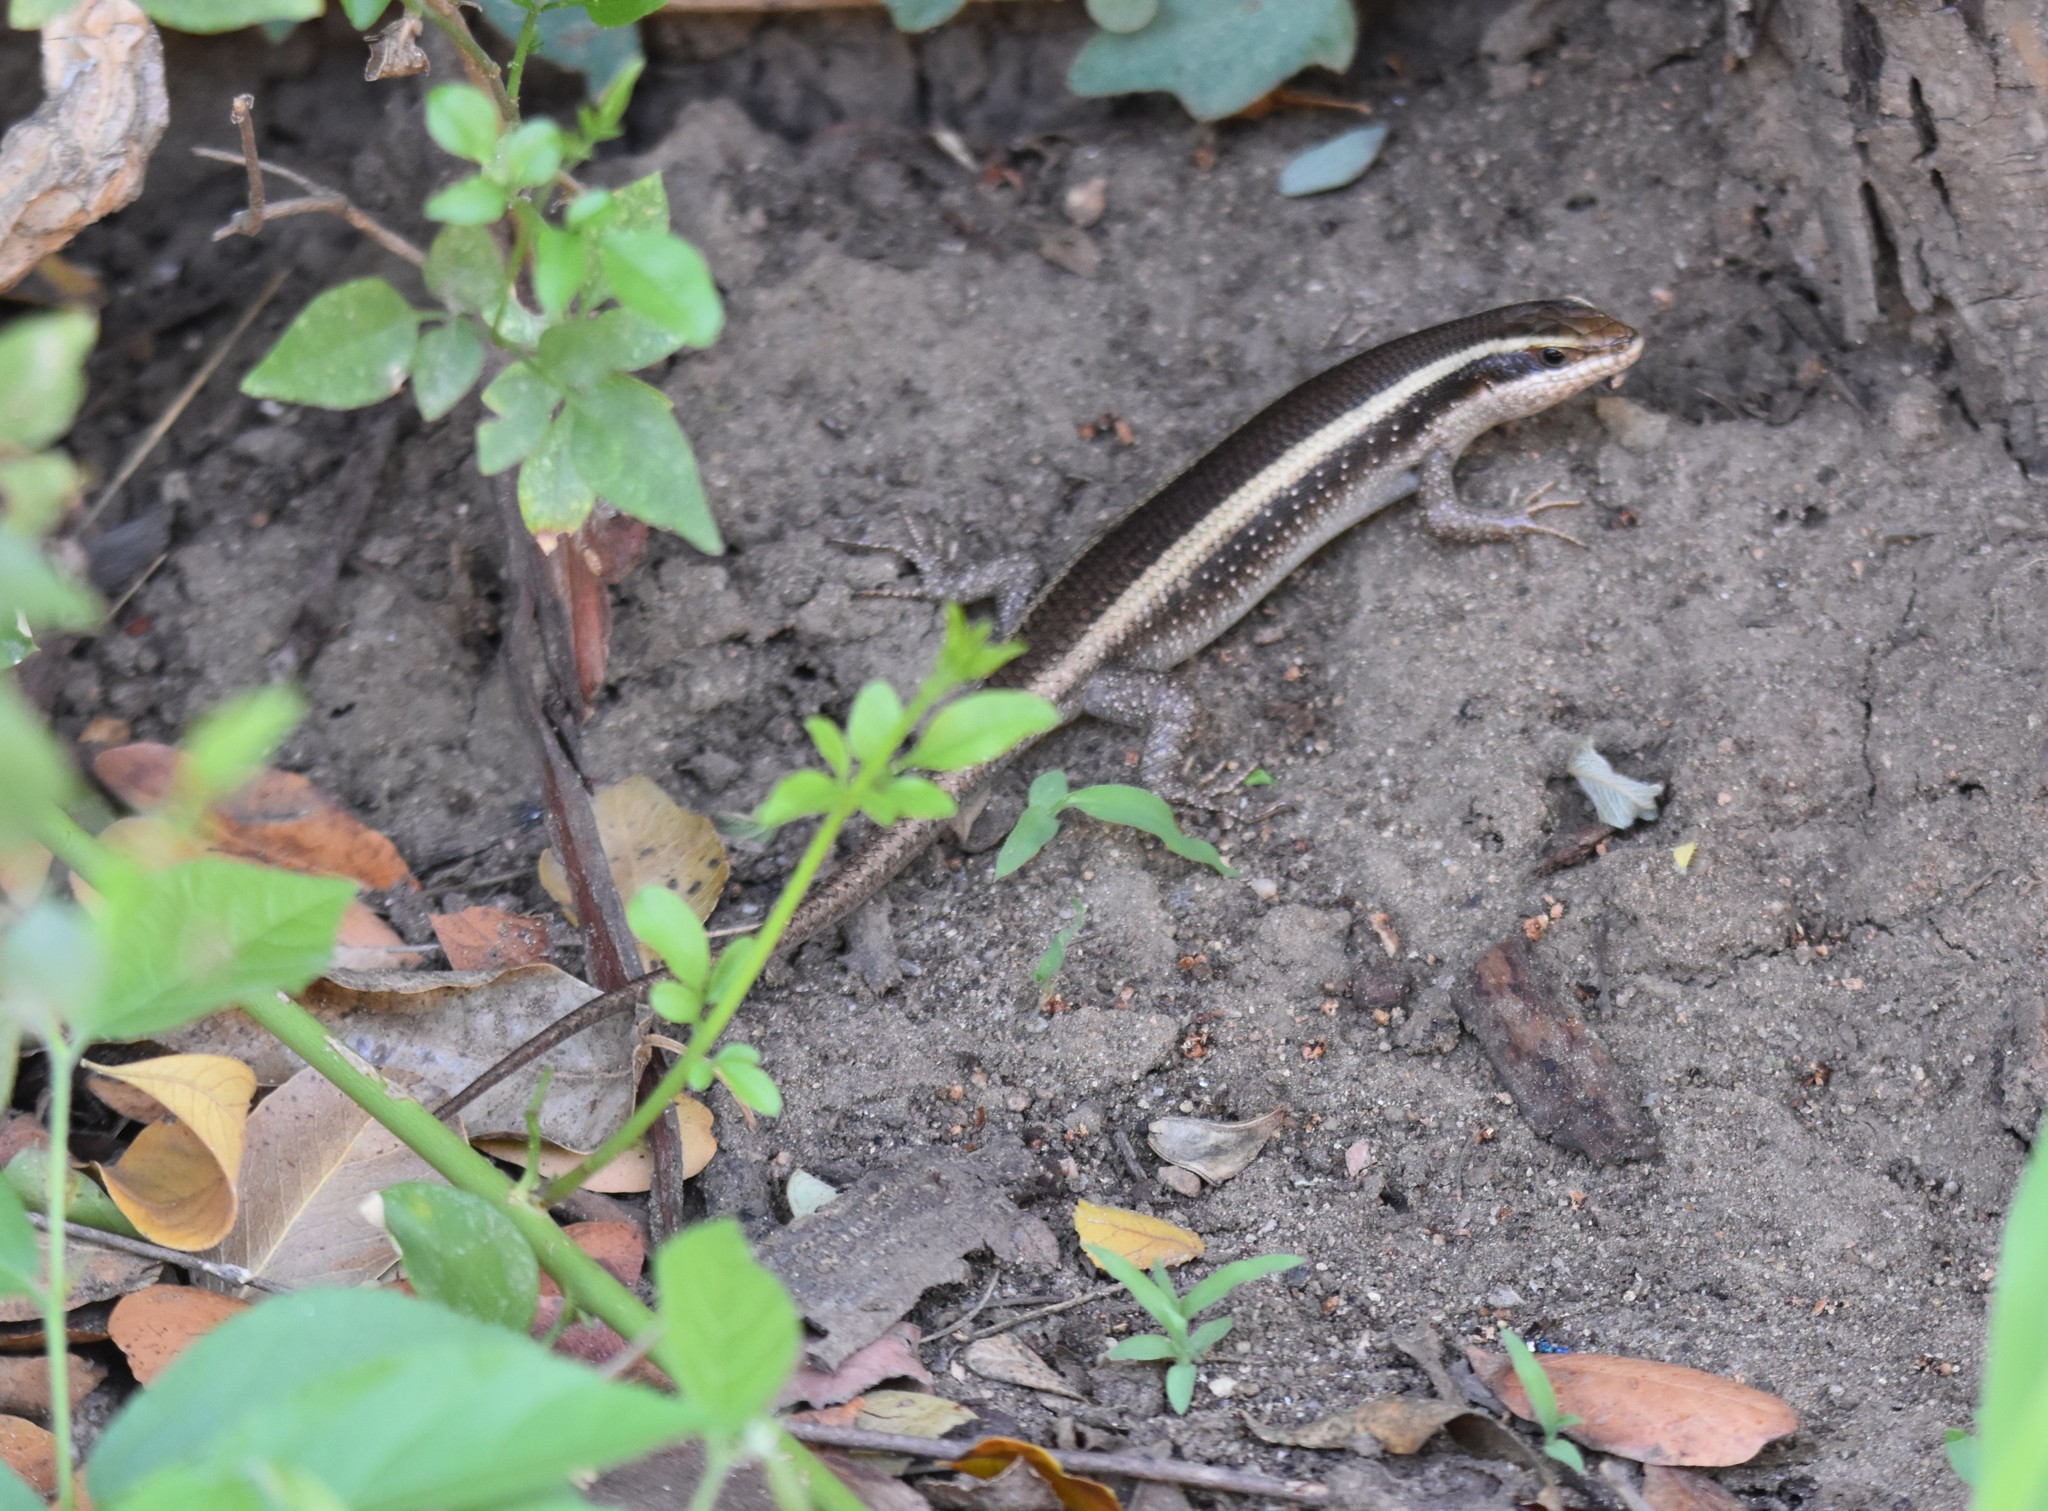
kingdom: Animalia
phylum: Chordata
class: Squamata
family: Scincidae
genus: Trachylepis
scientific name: Trachylepis striata
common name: African striped mabuya
